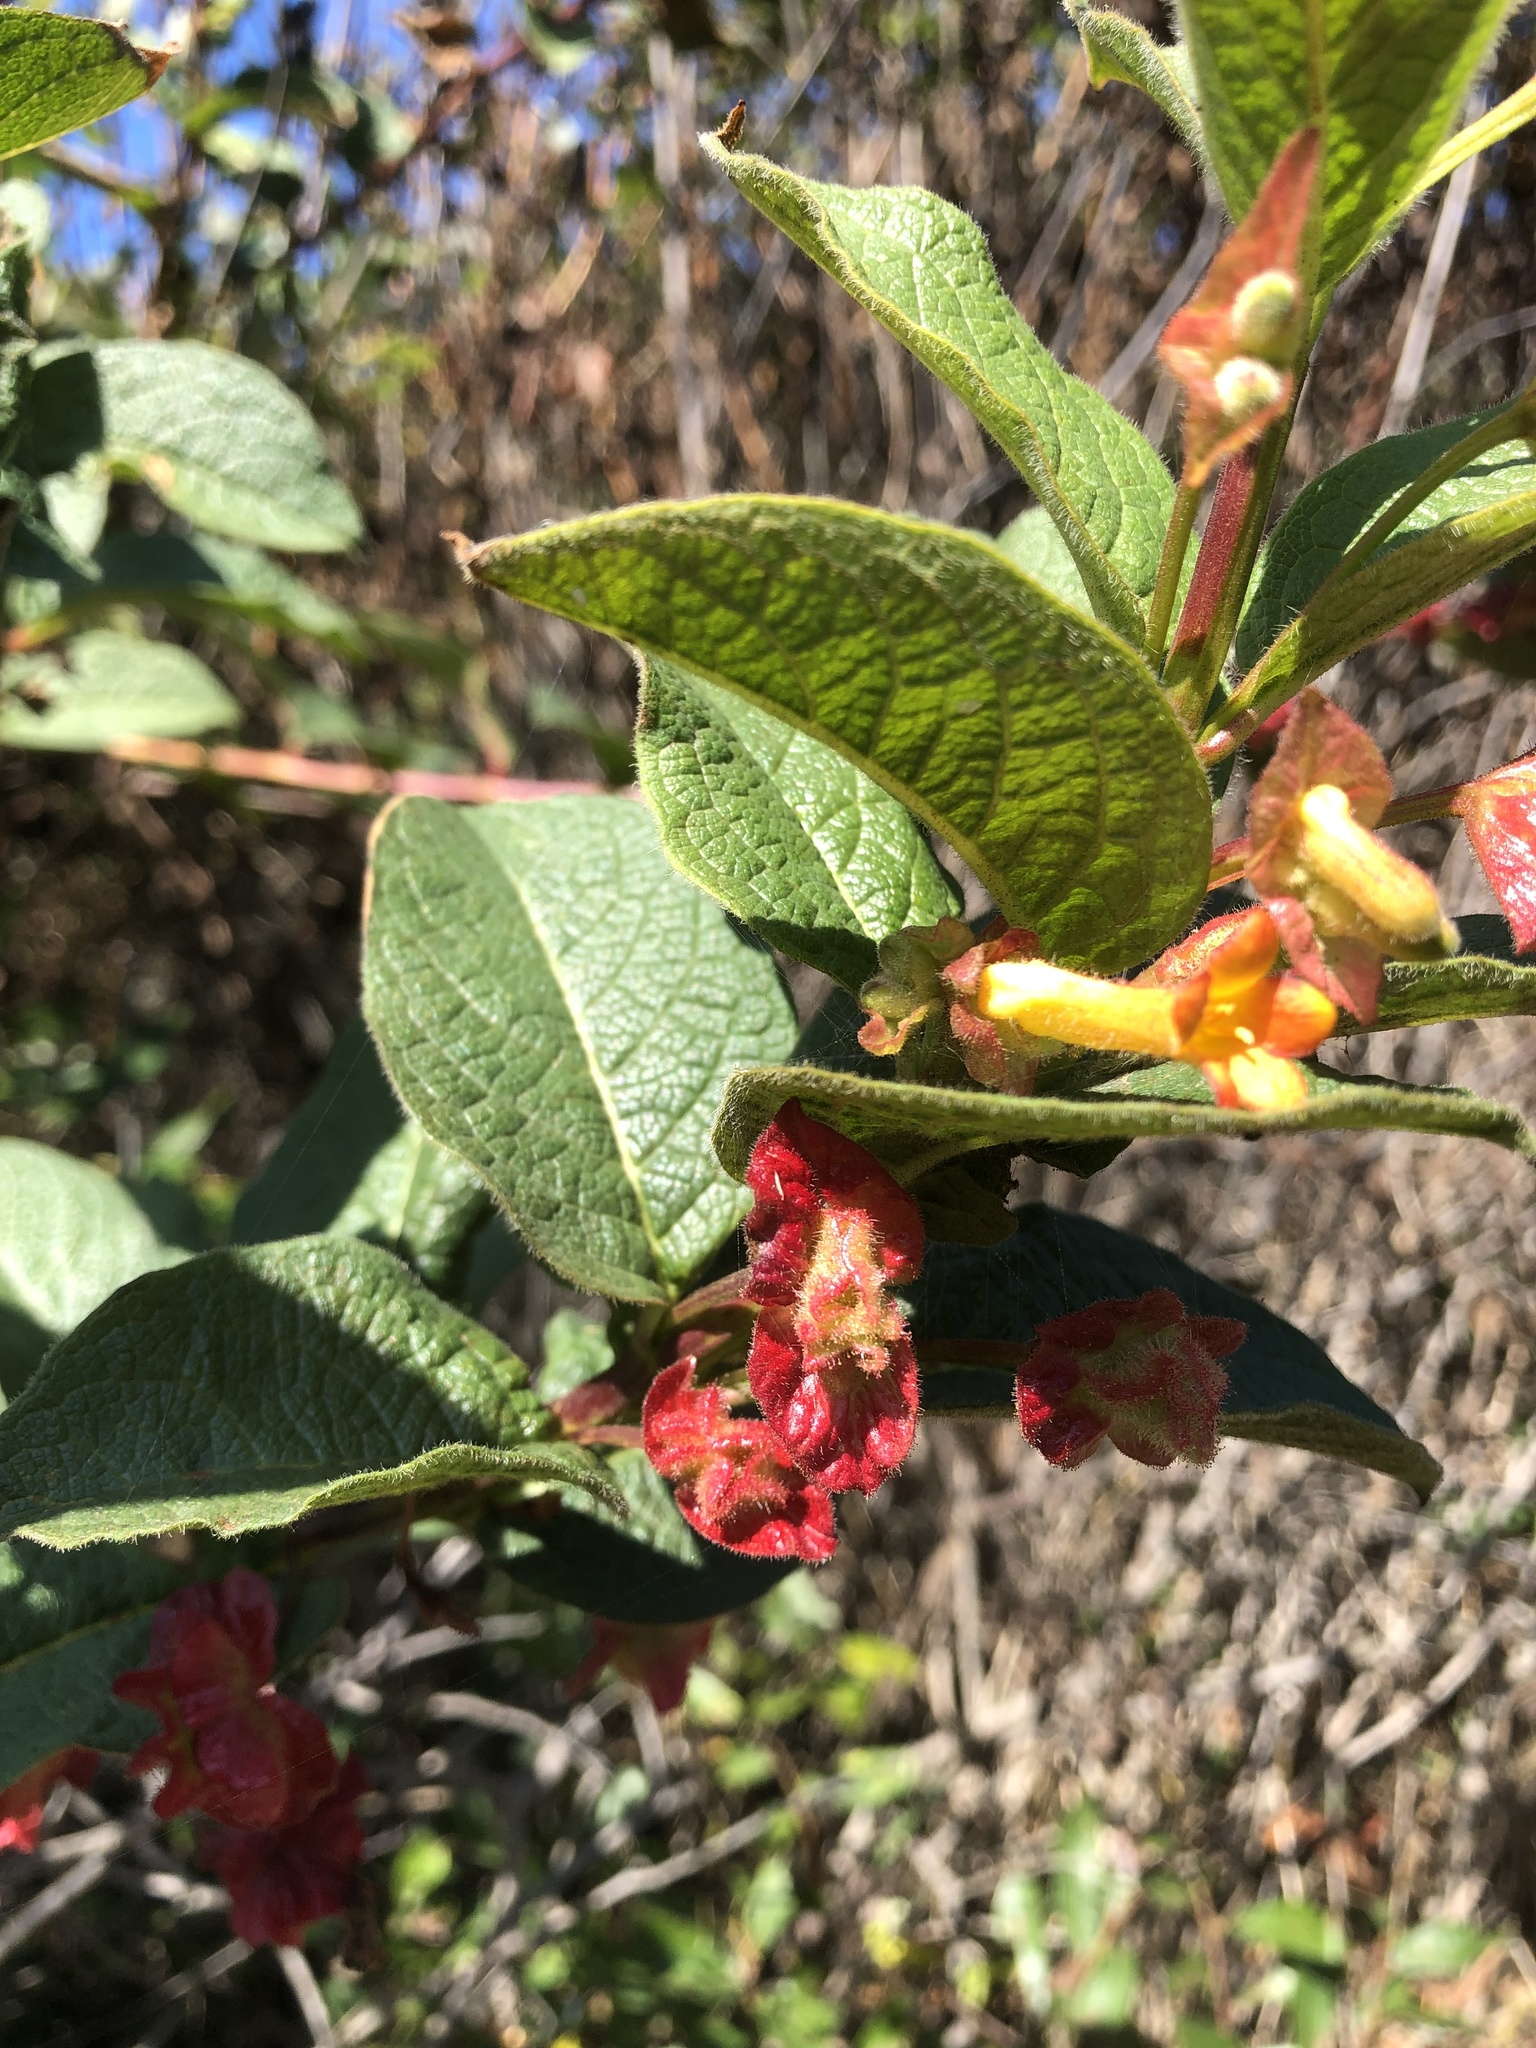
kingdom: Plantae
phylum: Tracheophyta
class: Magnoliopsida
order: Dipsacales
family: Caprifoliaceae
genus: Lonicera
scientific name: Lonicera involucrata
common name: Californian honeysuckle
